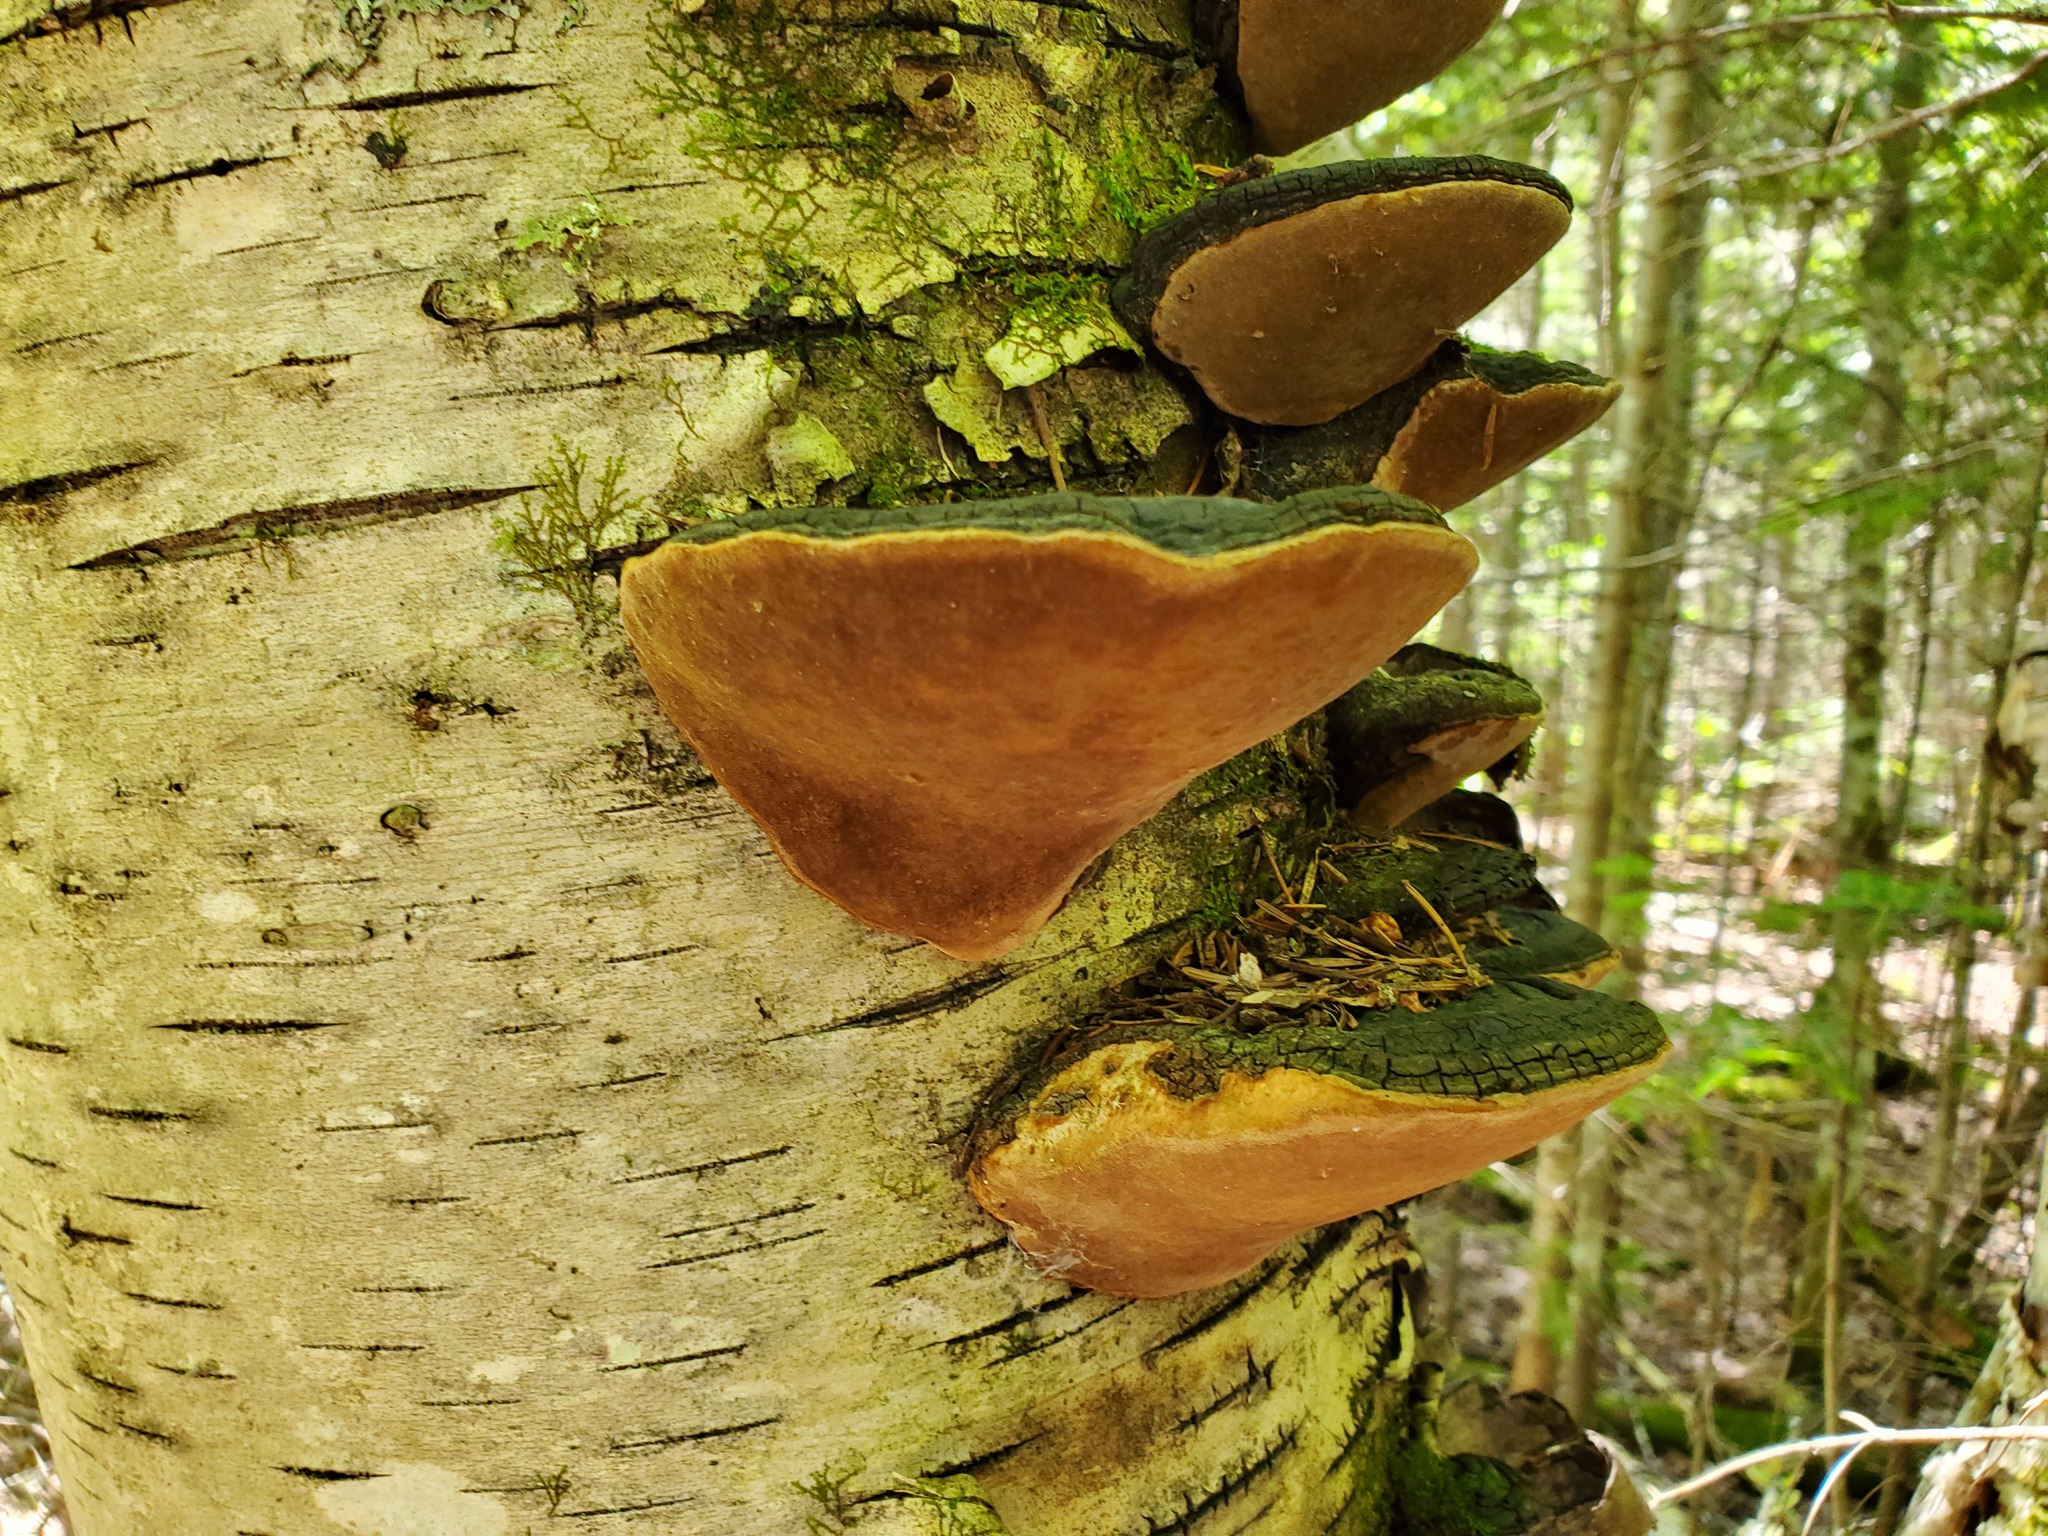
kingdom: Fungi
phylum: Basidiomycota
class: Agaricomycetes
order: Hymenochaetales
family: Hymenochaetaceae
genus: Phellinus
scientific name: Phellinus igniarius
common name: Willow bracket
